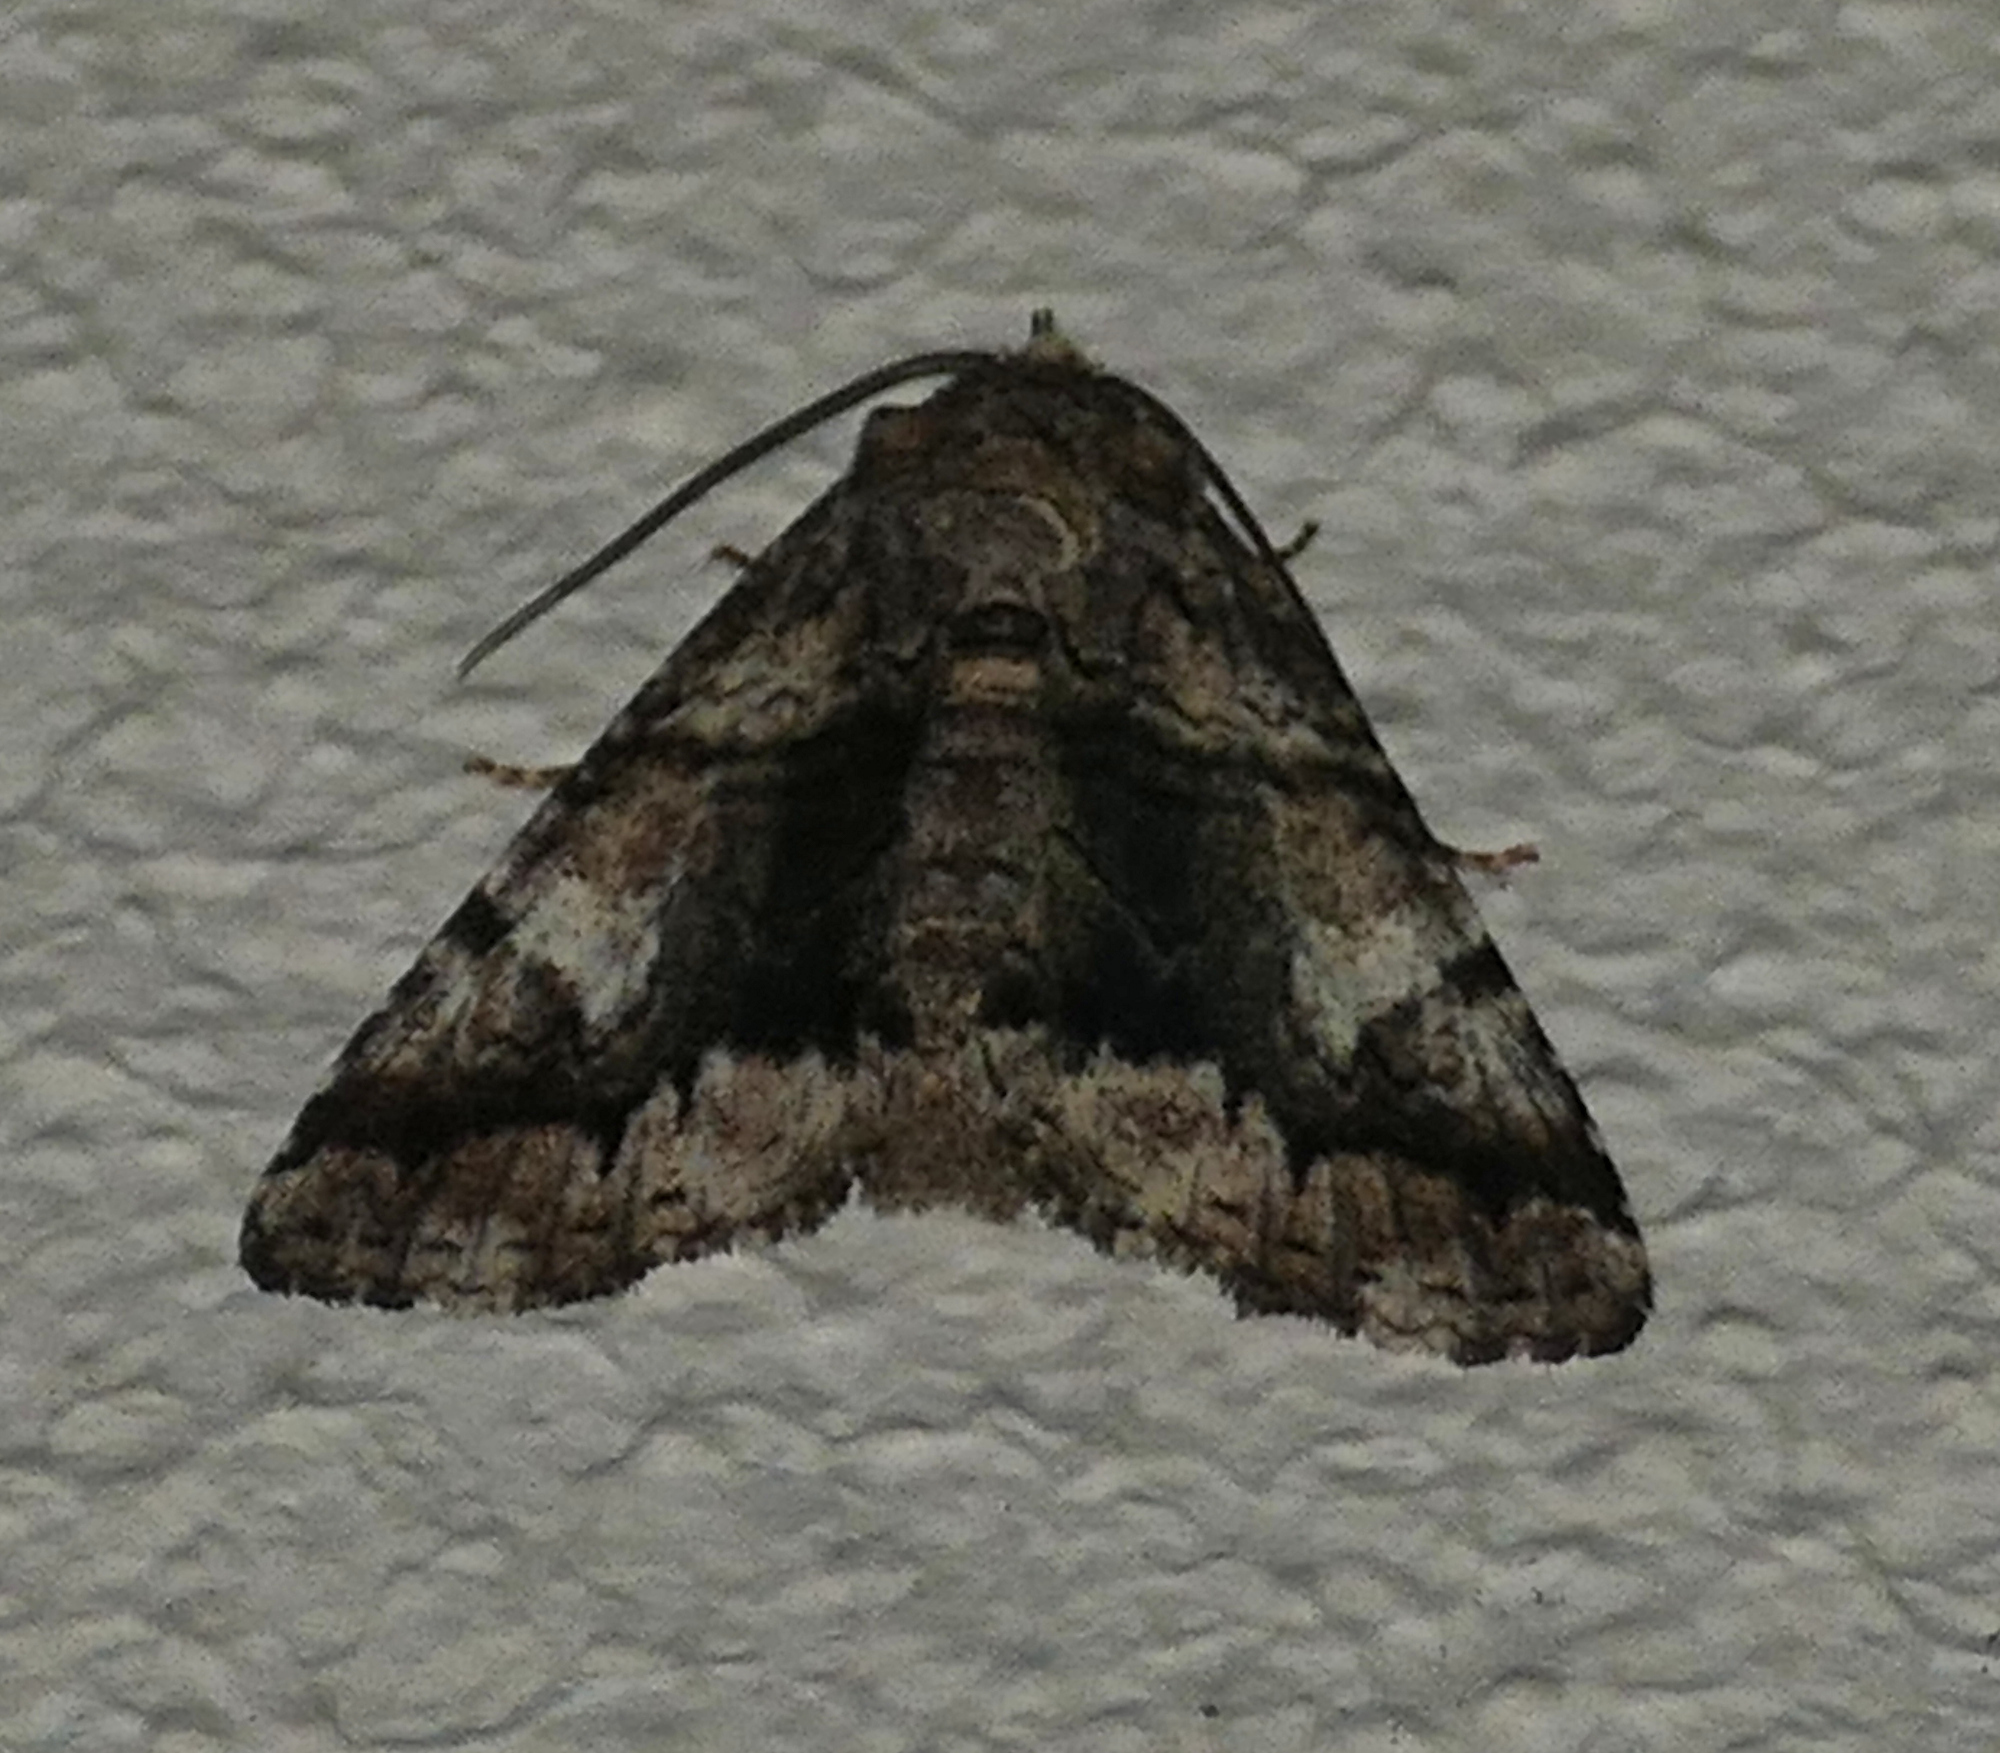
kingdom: Animalia
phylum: Arthropoda
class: Insecta
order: Lepidoptera
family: Erebidae
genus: Metria
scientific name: Metria amella
